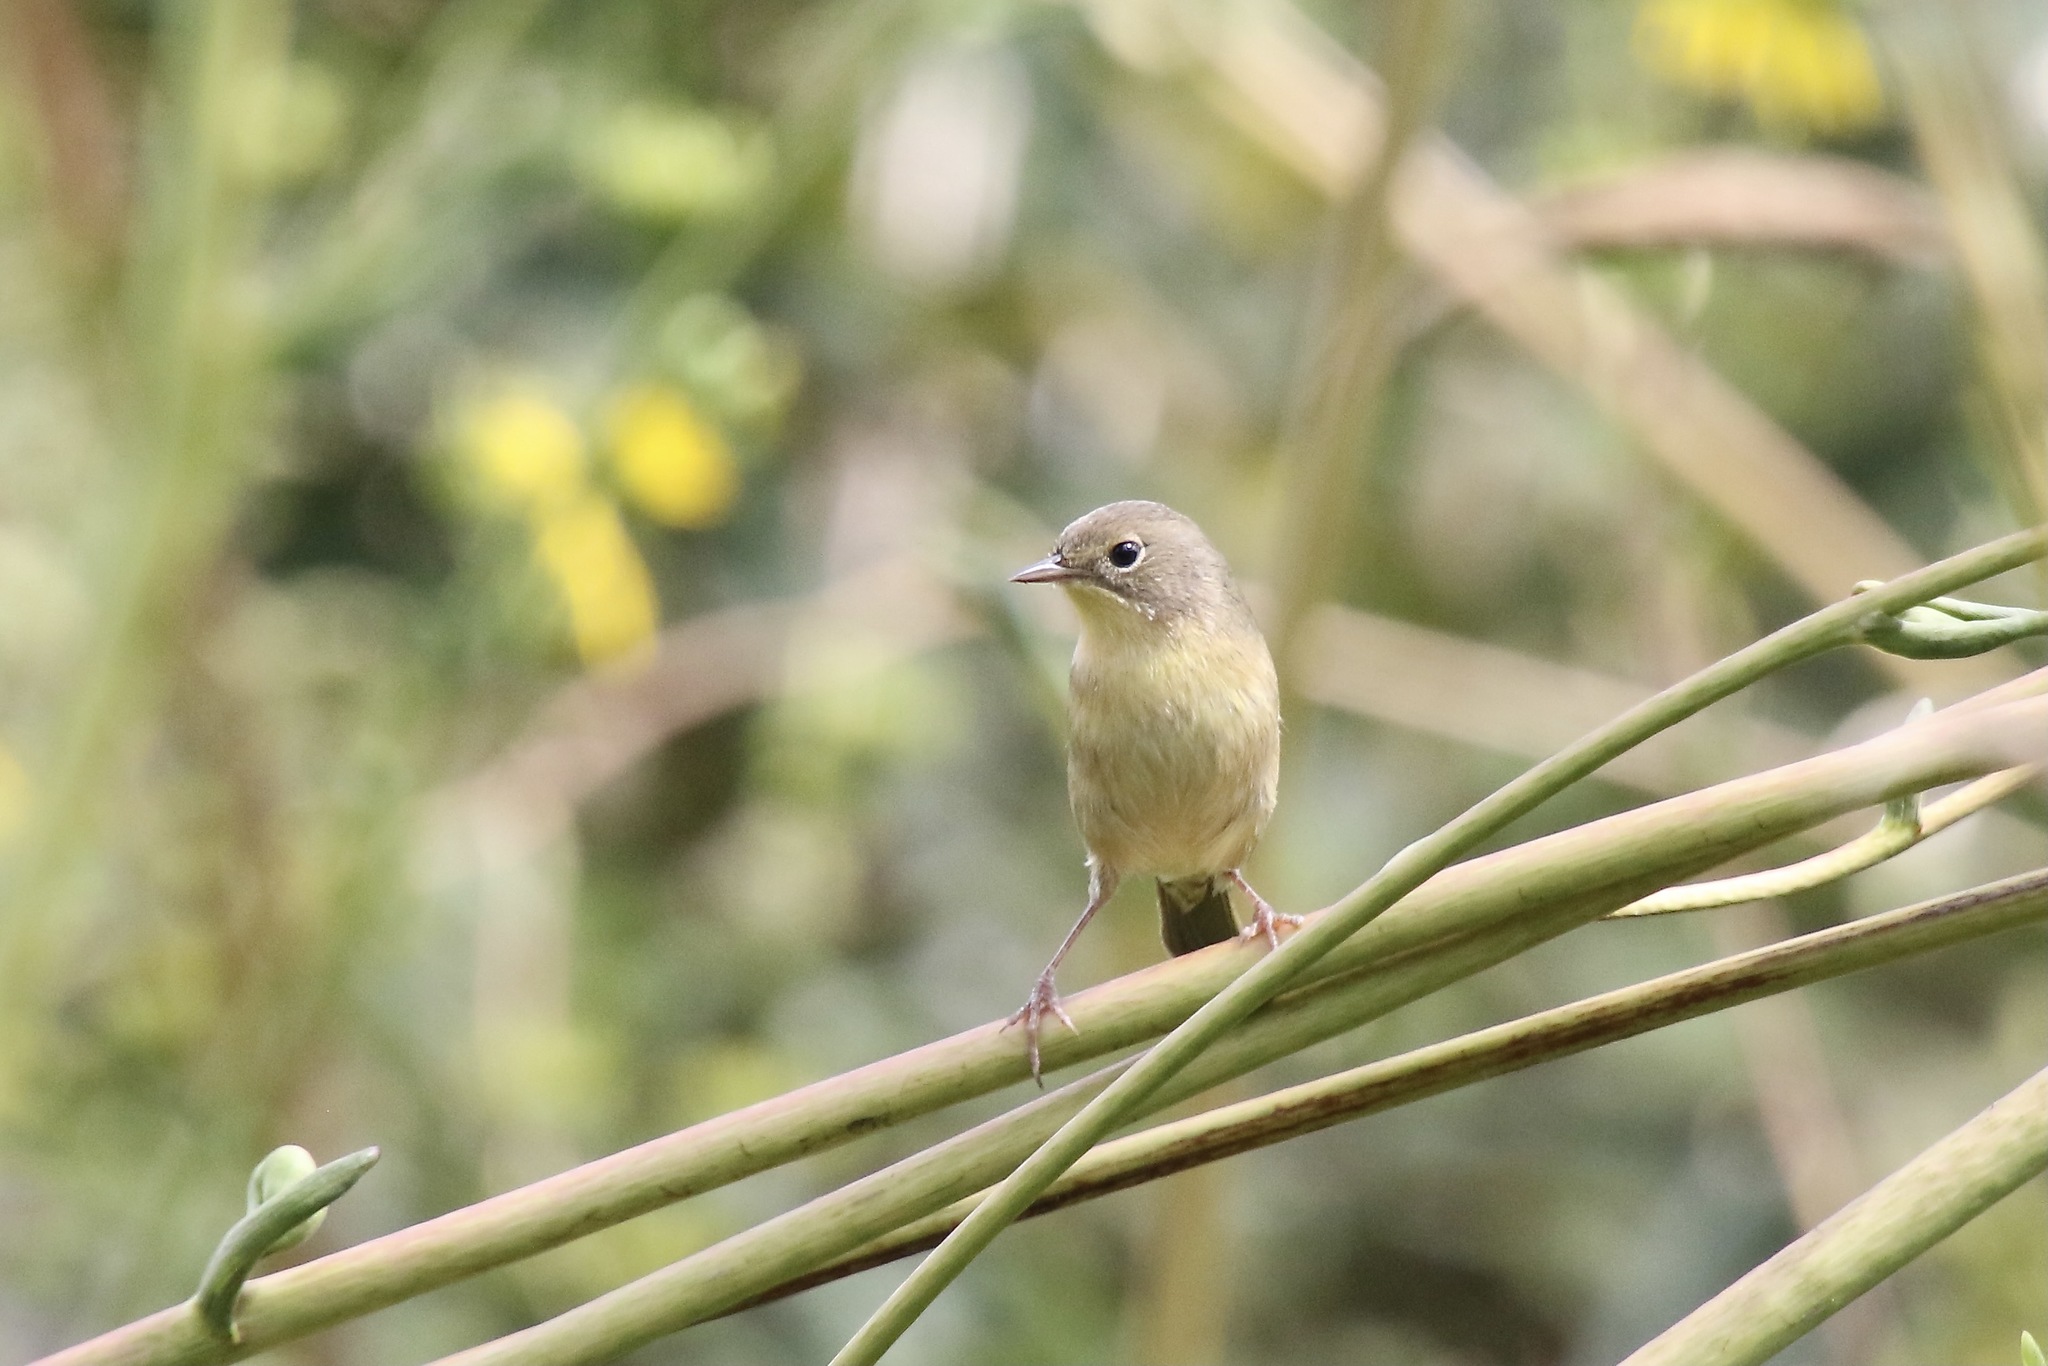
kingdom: Animalia
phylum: Chordata
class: Aves
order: Passeriformes
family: Parulidae
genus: Geothlypis
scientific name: Geothlypis trichas
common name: Common yellowthroat
